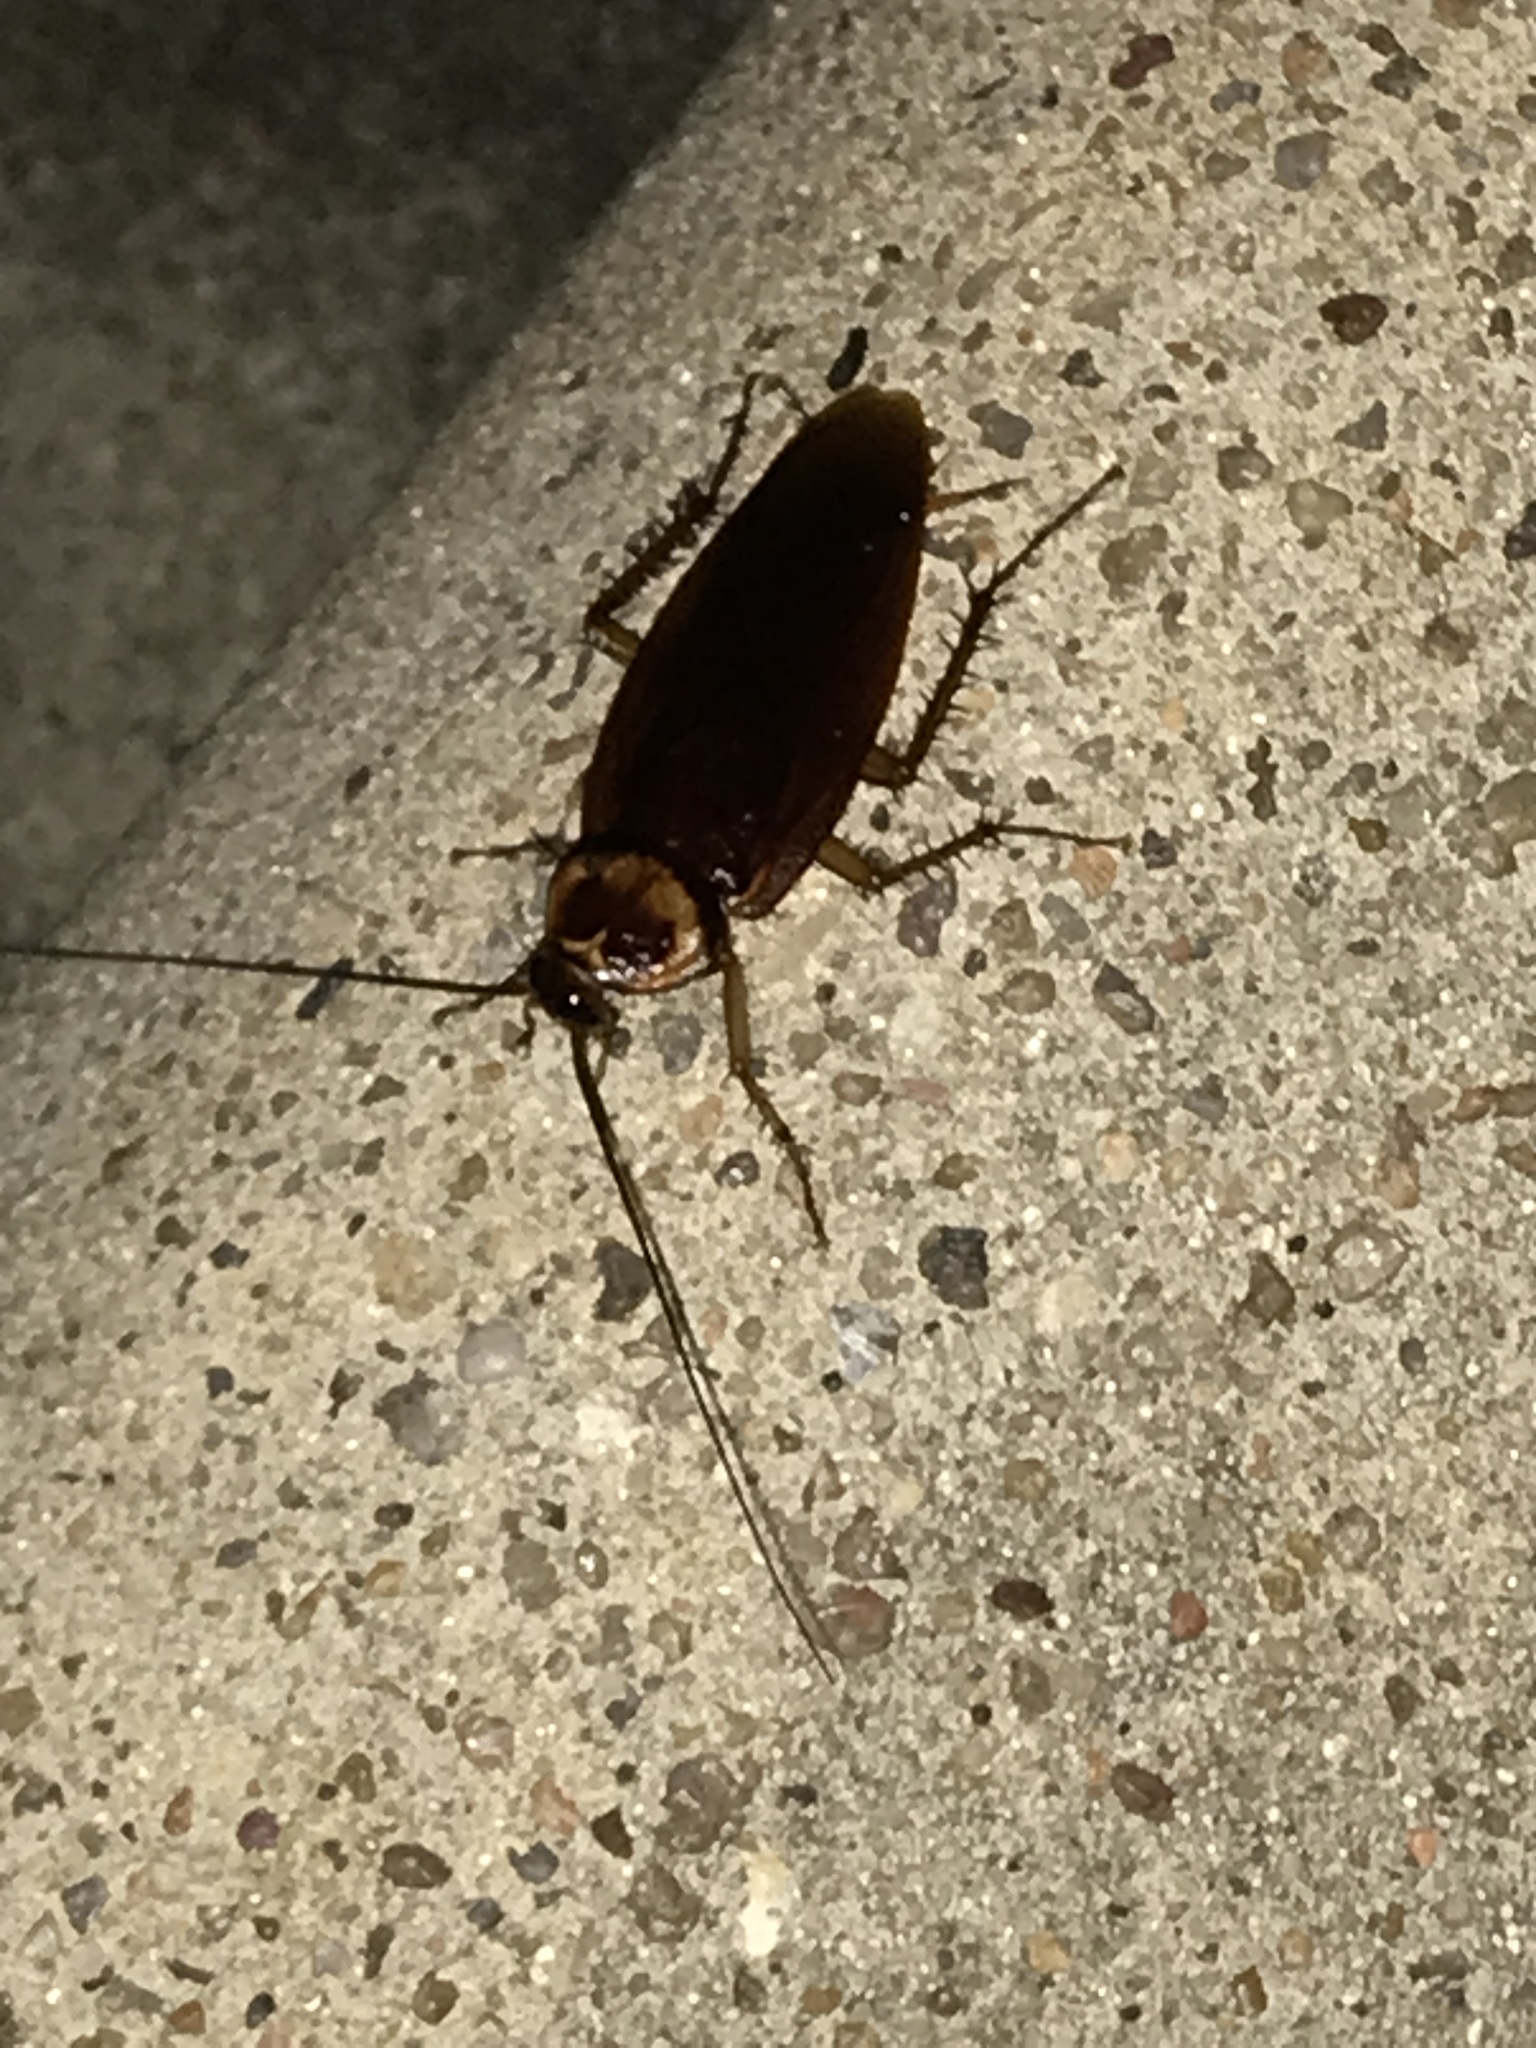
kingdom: Animalia
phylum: Arthropoda
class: Insecta
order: Blattodea
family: Blattidae
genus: Periplaneta
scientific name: Periplaneta americana
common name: American cockroach
